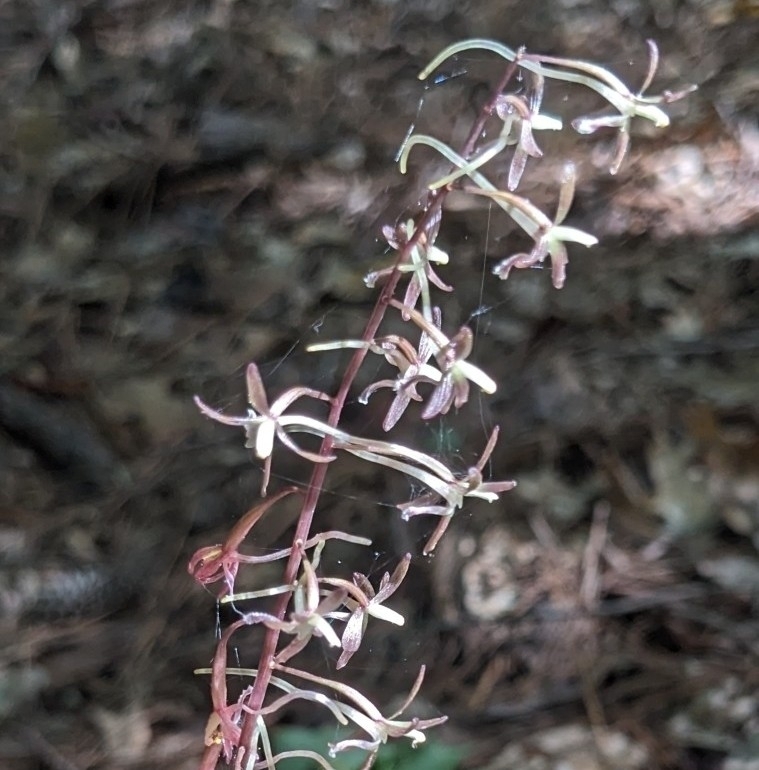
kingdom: Plantae
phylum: Tracheophyta
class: Liliopsida
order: Asparagales
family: Orchidaceae
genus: Tipularia
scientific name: Tipularia discolor
